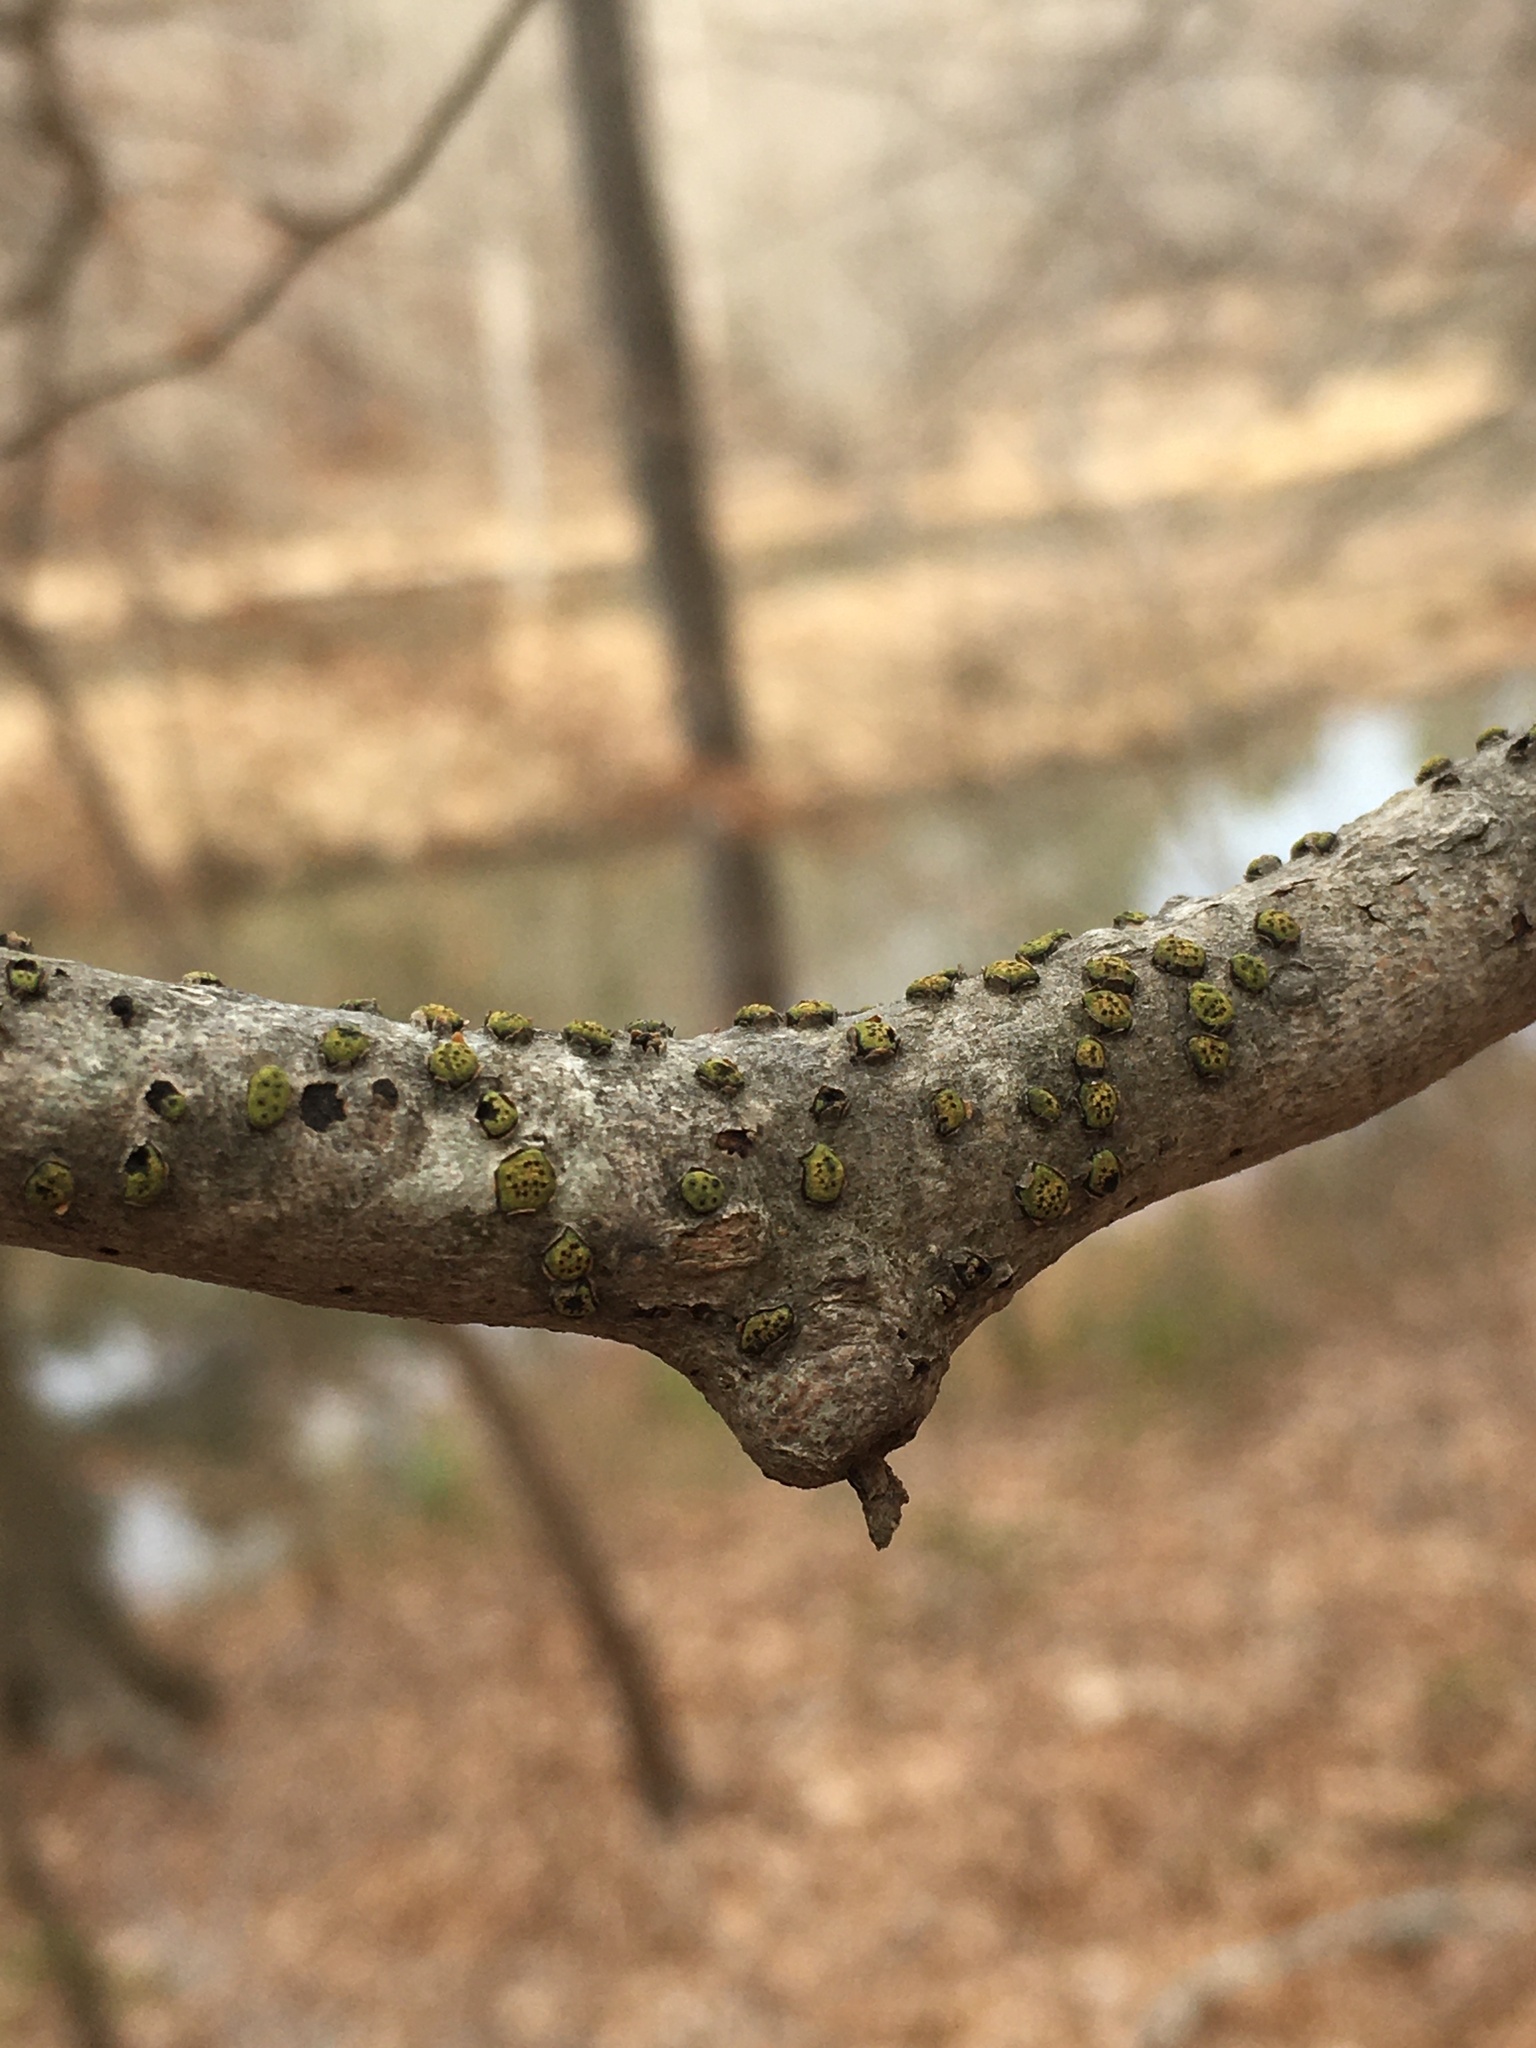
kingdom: Fungi
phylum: Ascomycota
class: Sordariomycetes
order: Xylariales
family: Diatrypaceae
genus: Diatrype
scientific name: Diatrype virescens
